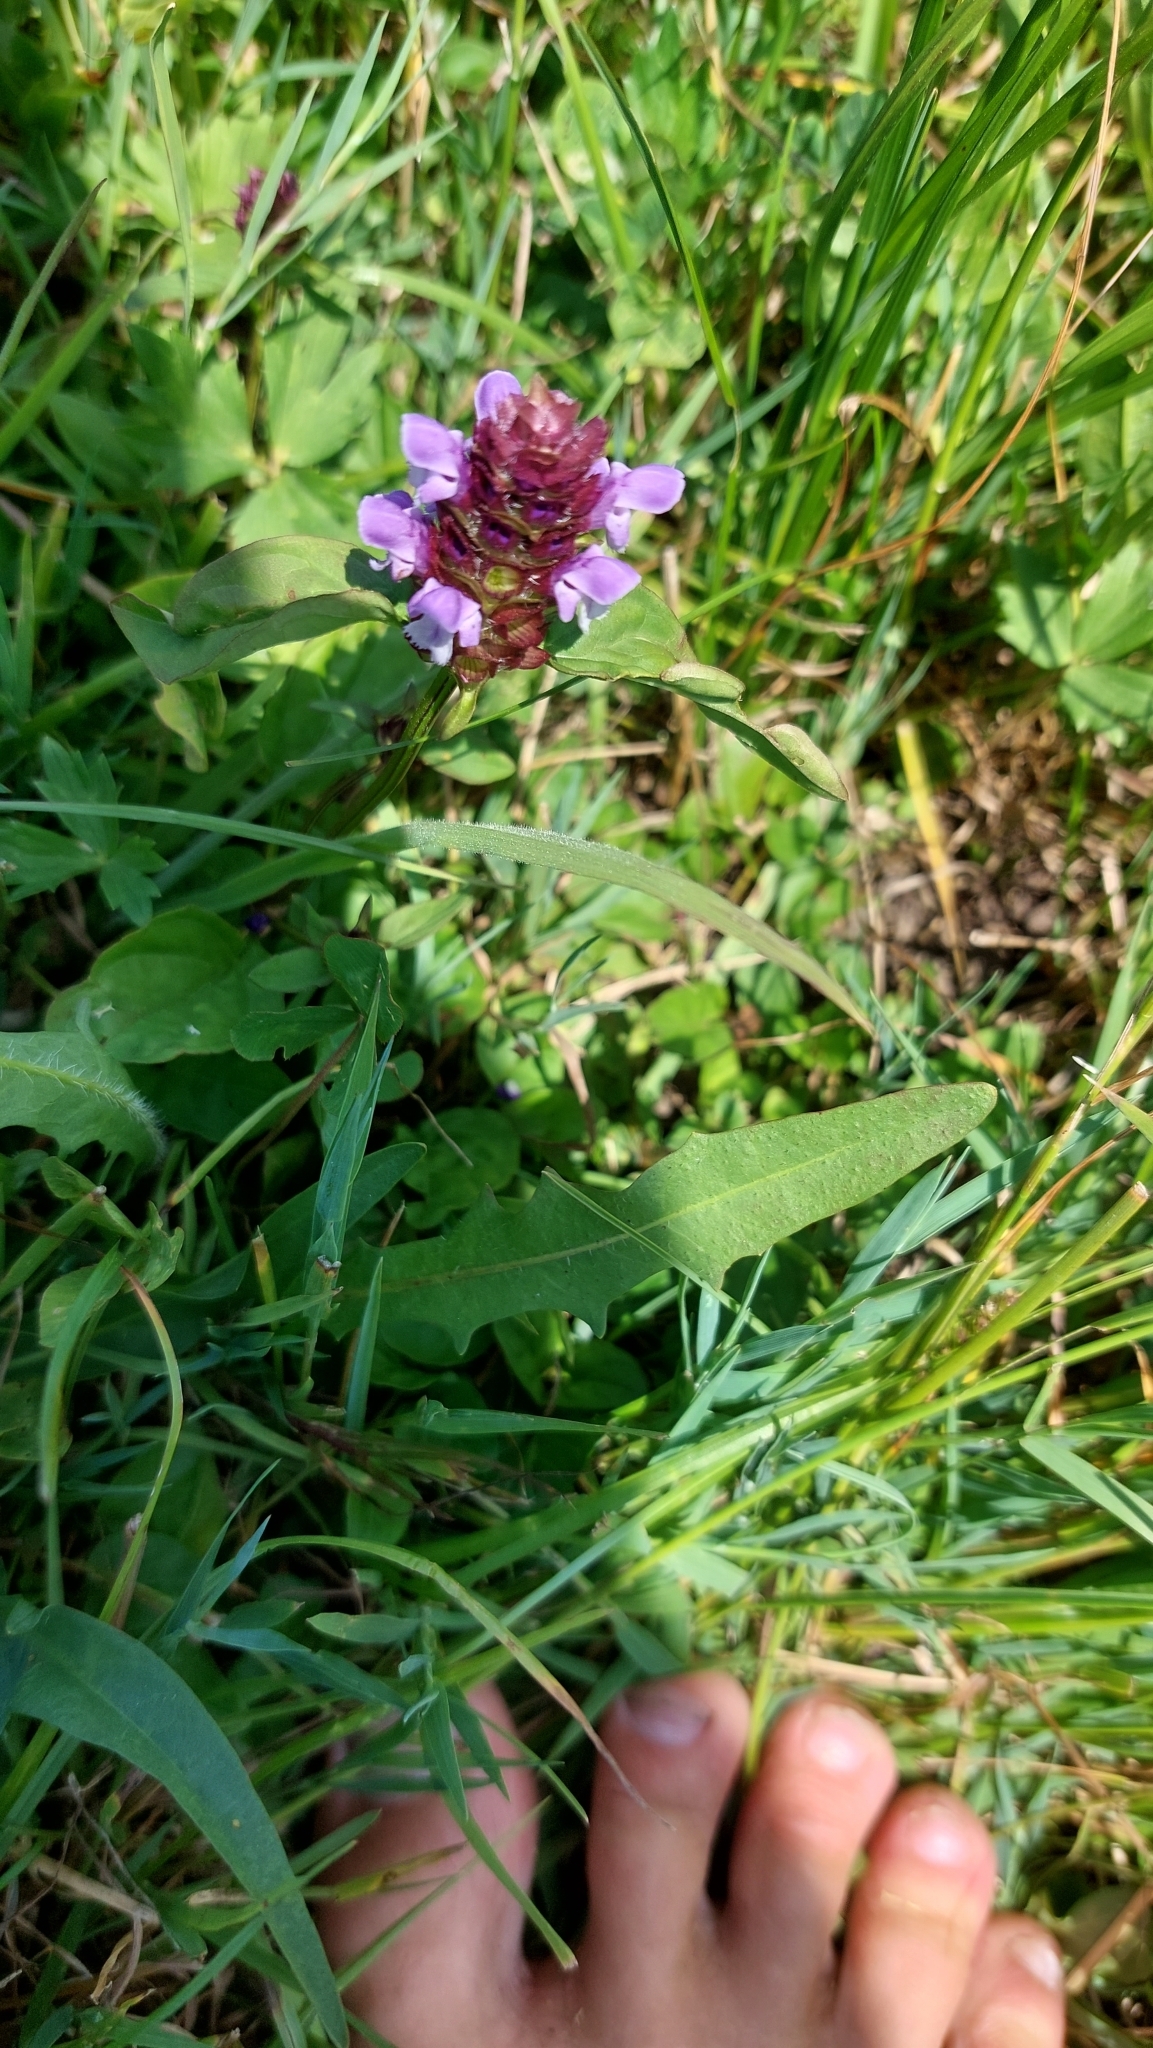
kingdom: Plantae
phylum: Tracheophyta
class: Magnoliopsida
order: Lamiales
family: Lamiaceae
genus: Prunella
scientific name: Prunella vulgaris
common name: Heal-all
